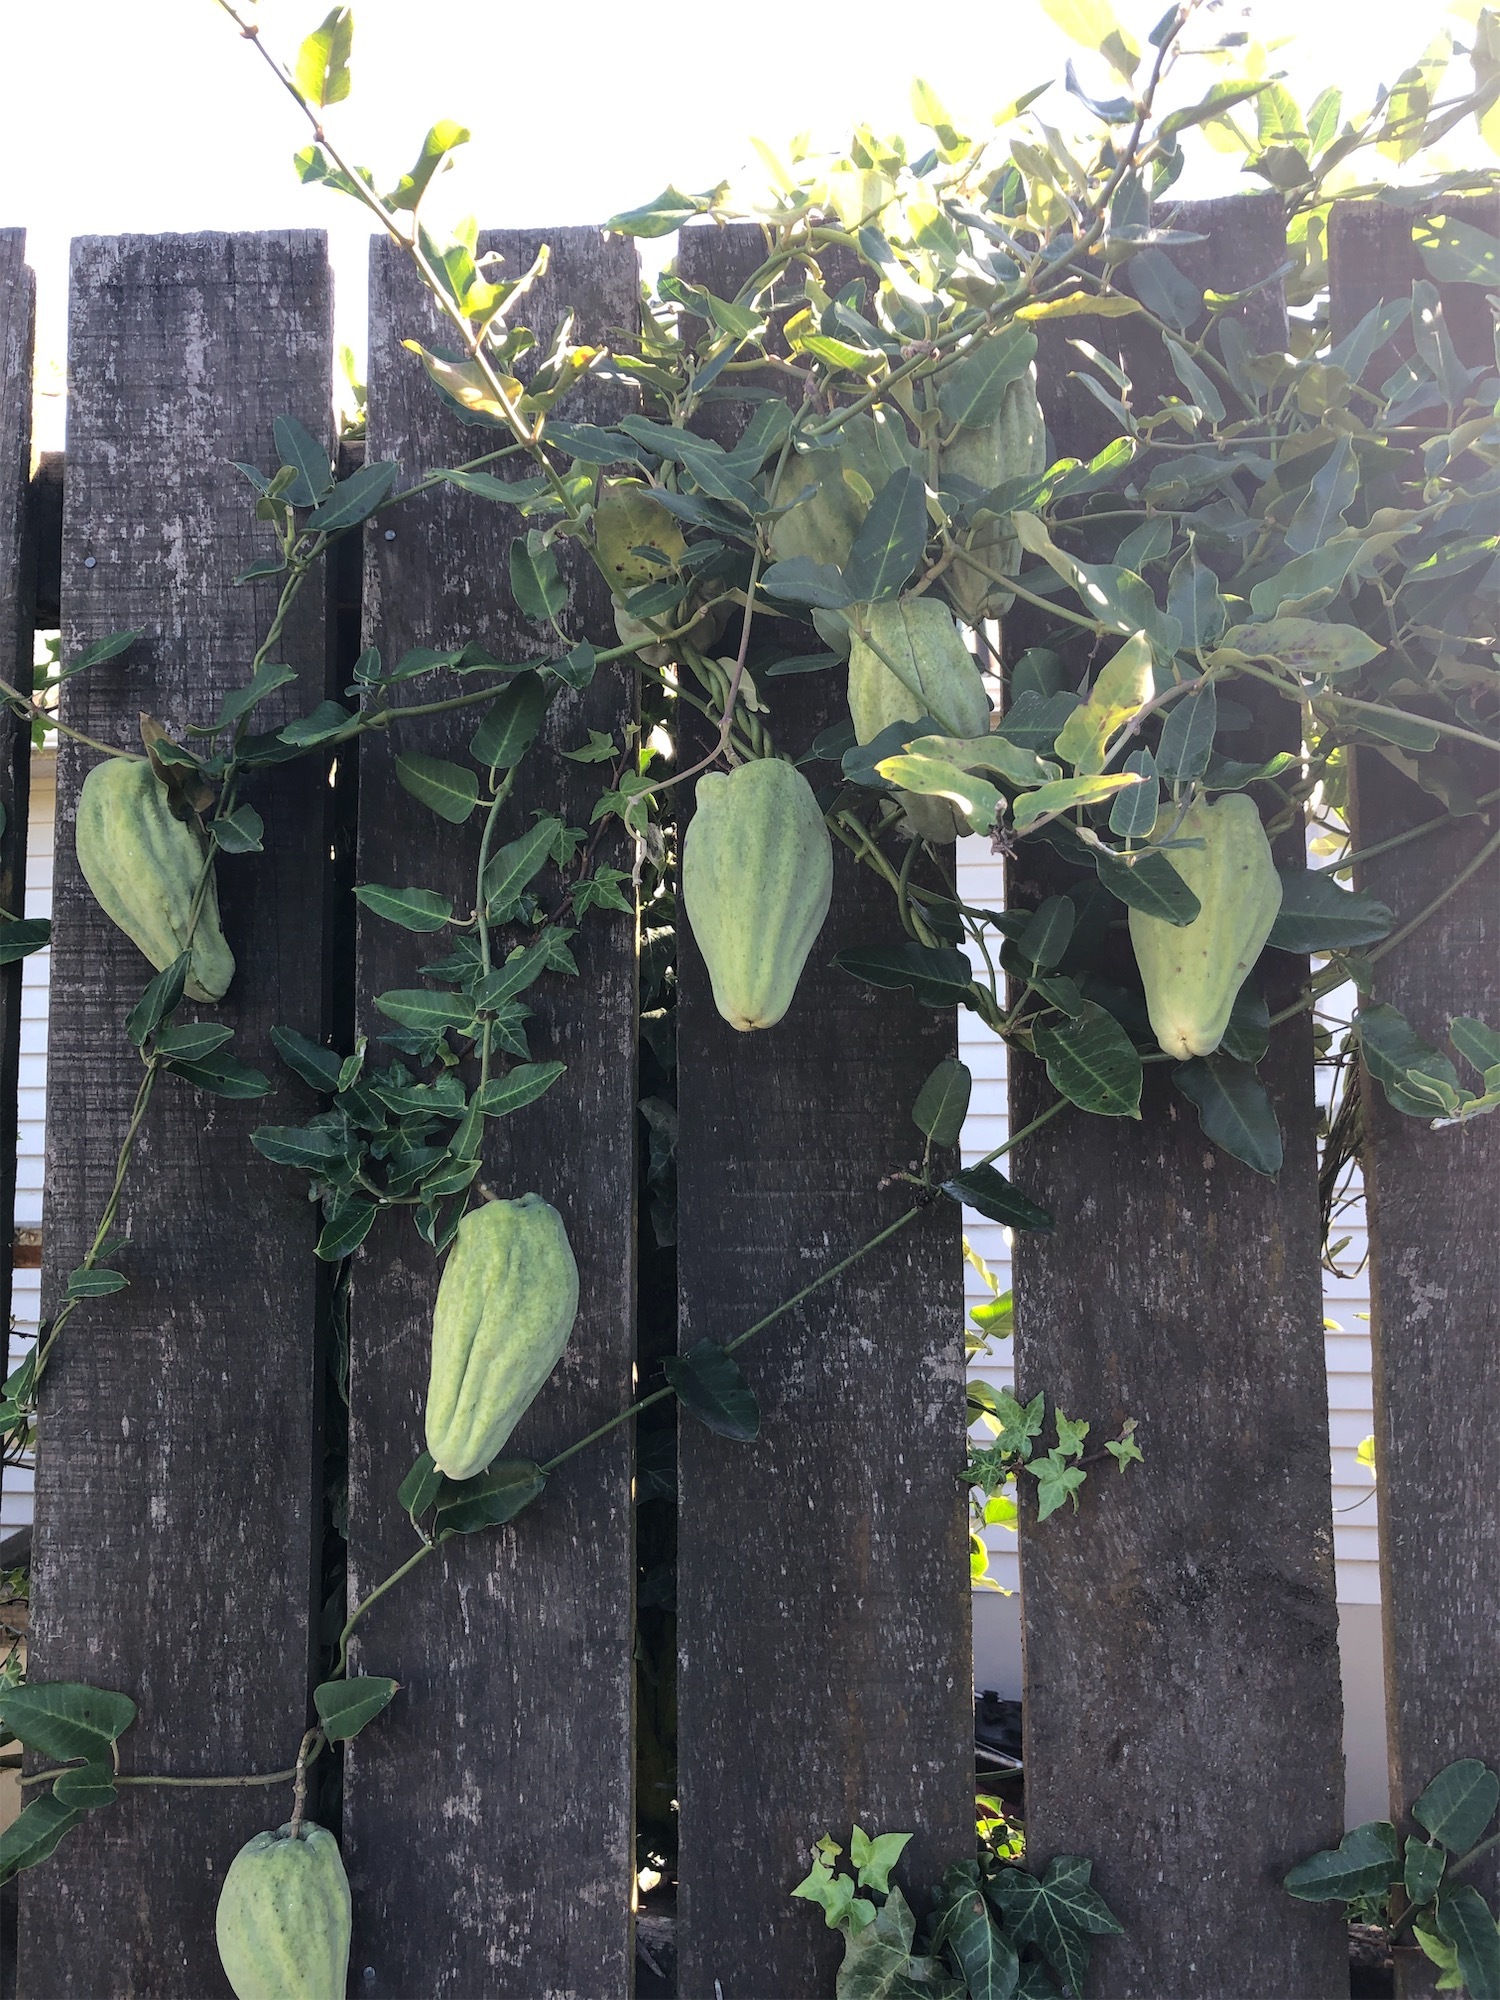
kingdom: Plantae
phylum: Tracheophyta
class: Magnoliopsida
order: Gentianales
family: Apocynaceae
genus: Araujia
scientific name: Araujia sericifera
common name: White bladderflower
